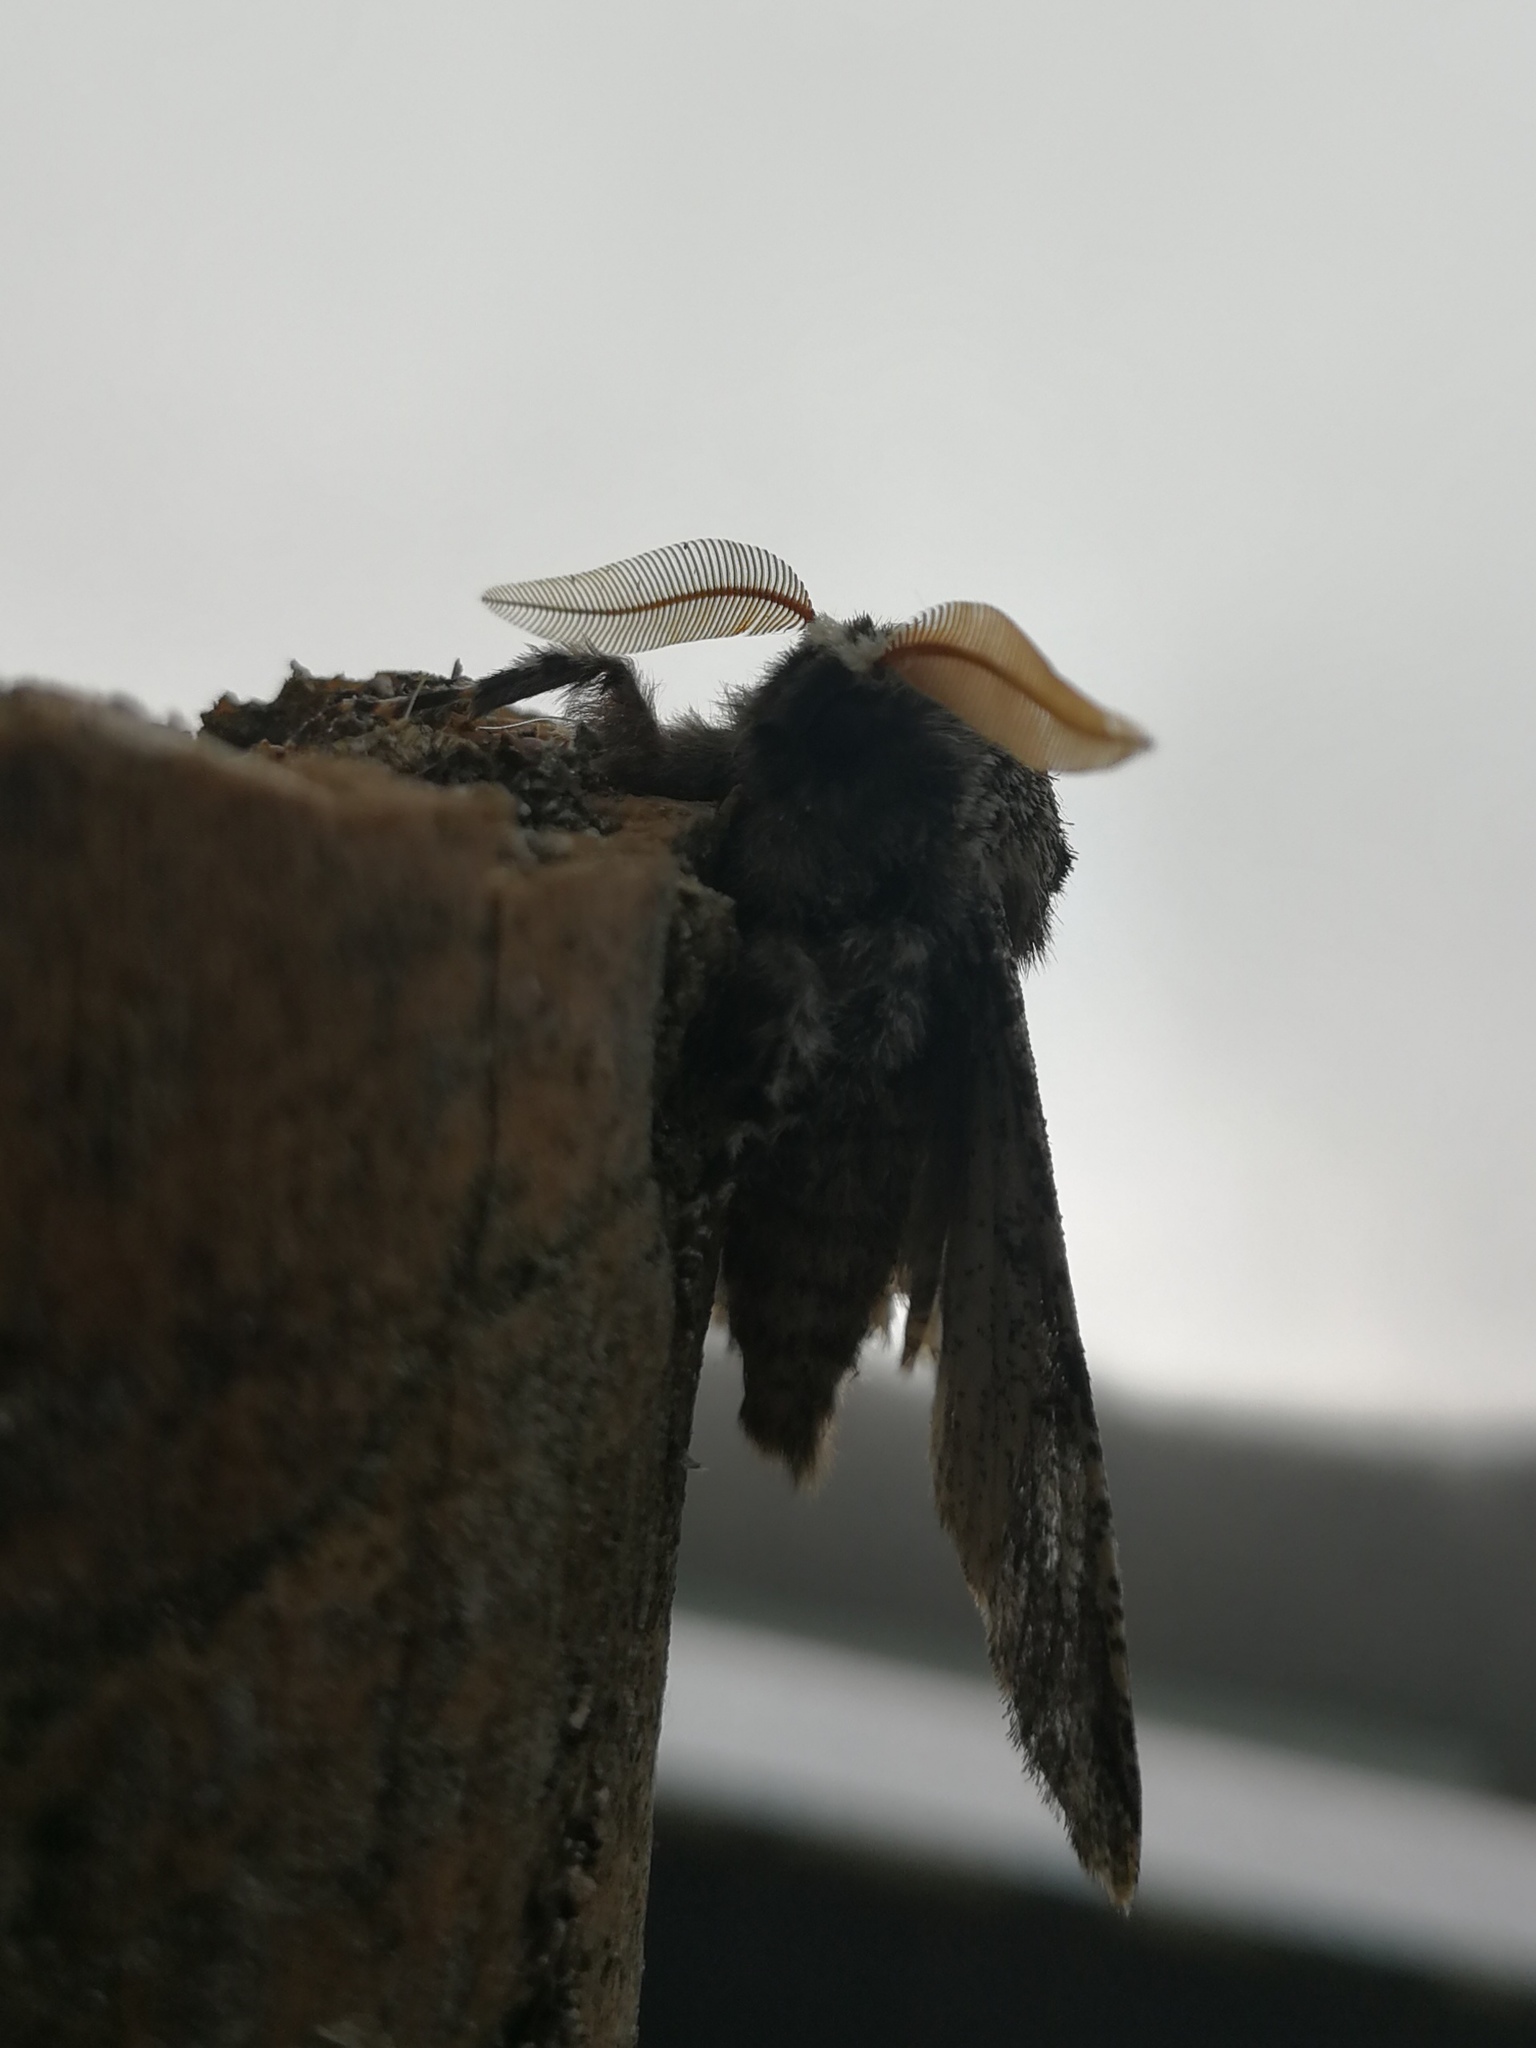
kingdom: Animalia
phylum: Arthropoda
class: Insecta
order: Lepidoptera
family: Geometridae
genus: Biston
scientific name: Biston strataria
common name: Oak beauty
